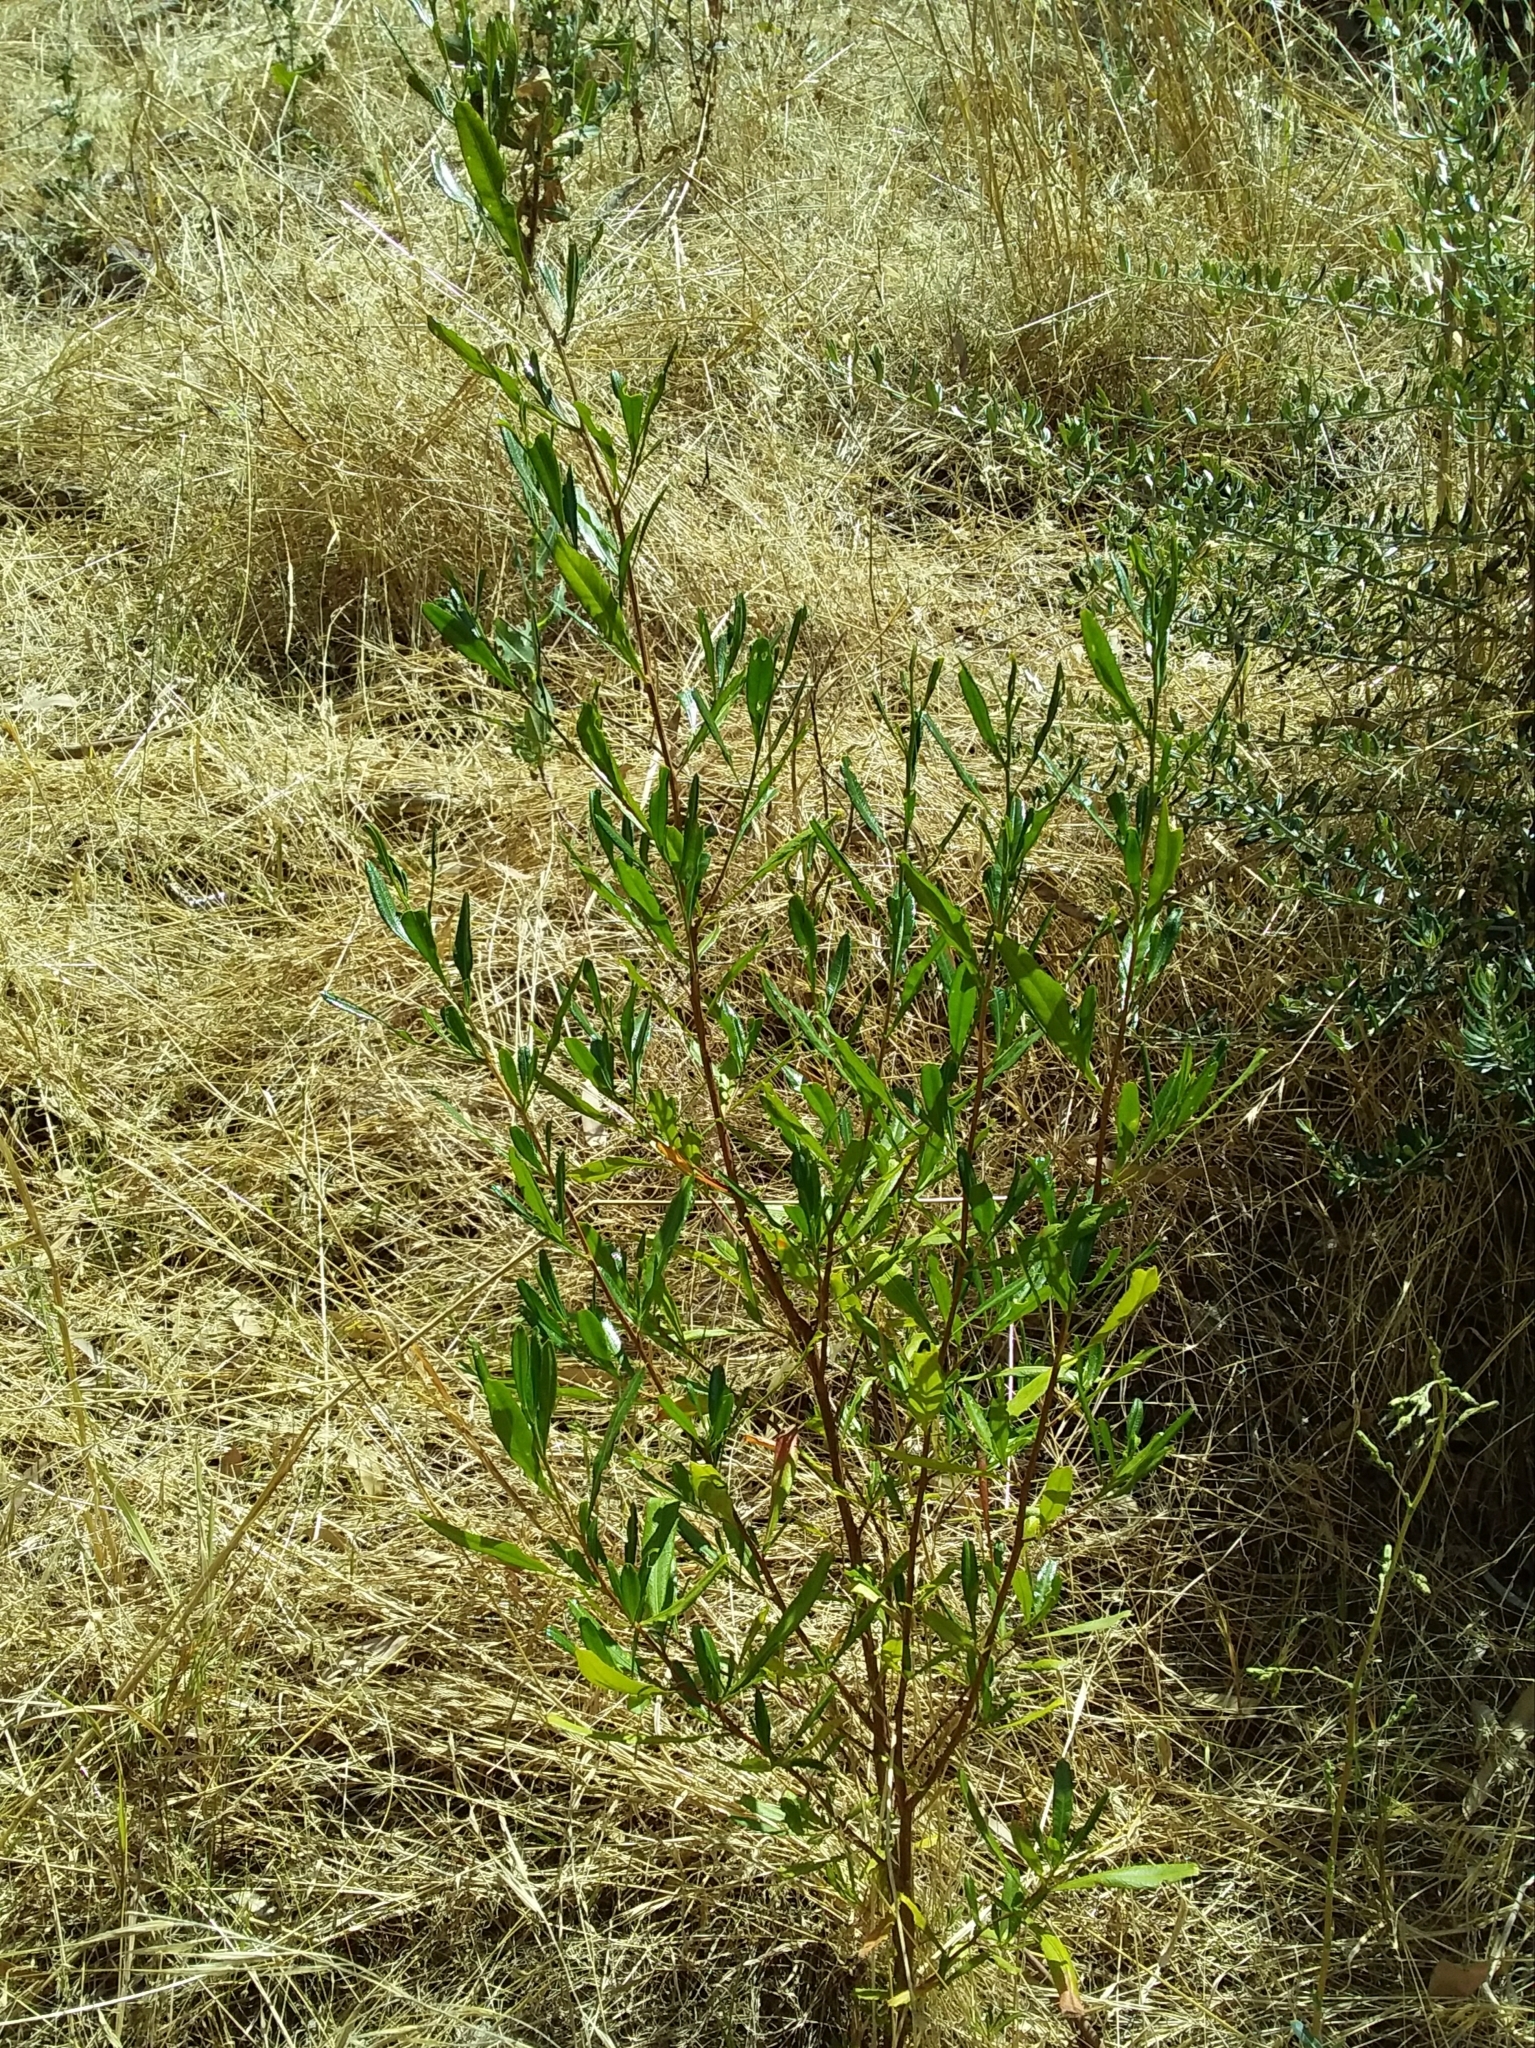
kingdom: Plantae
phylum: Tracheophyta
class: Magnoliopsida
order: Sapindales
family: Sapindaceae
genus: Dodonaea
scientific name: Dodonaea viscosa
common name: Hopbush
